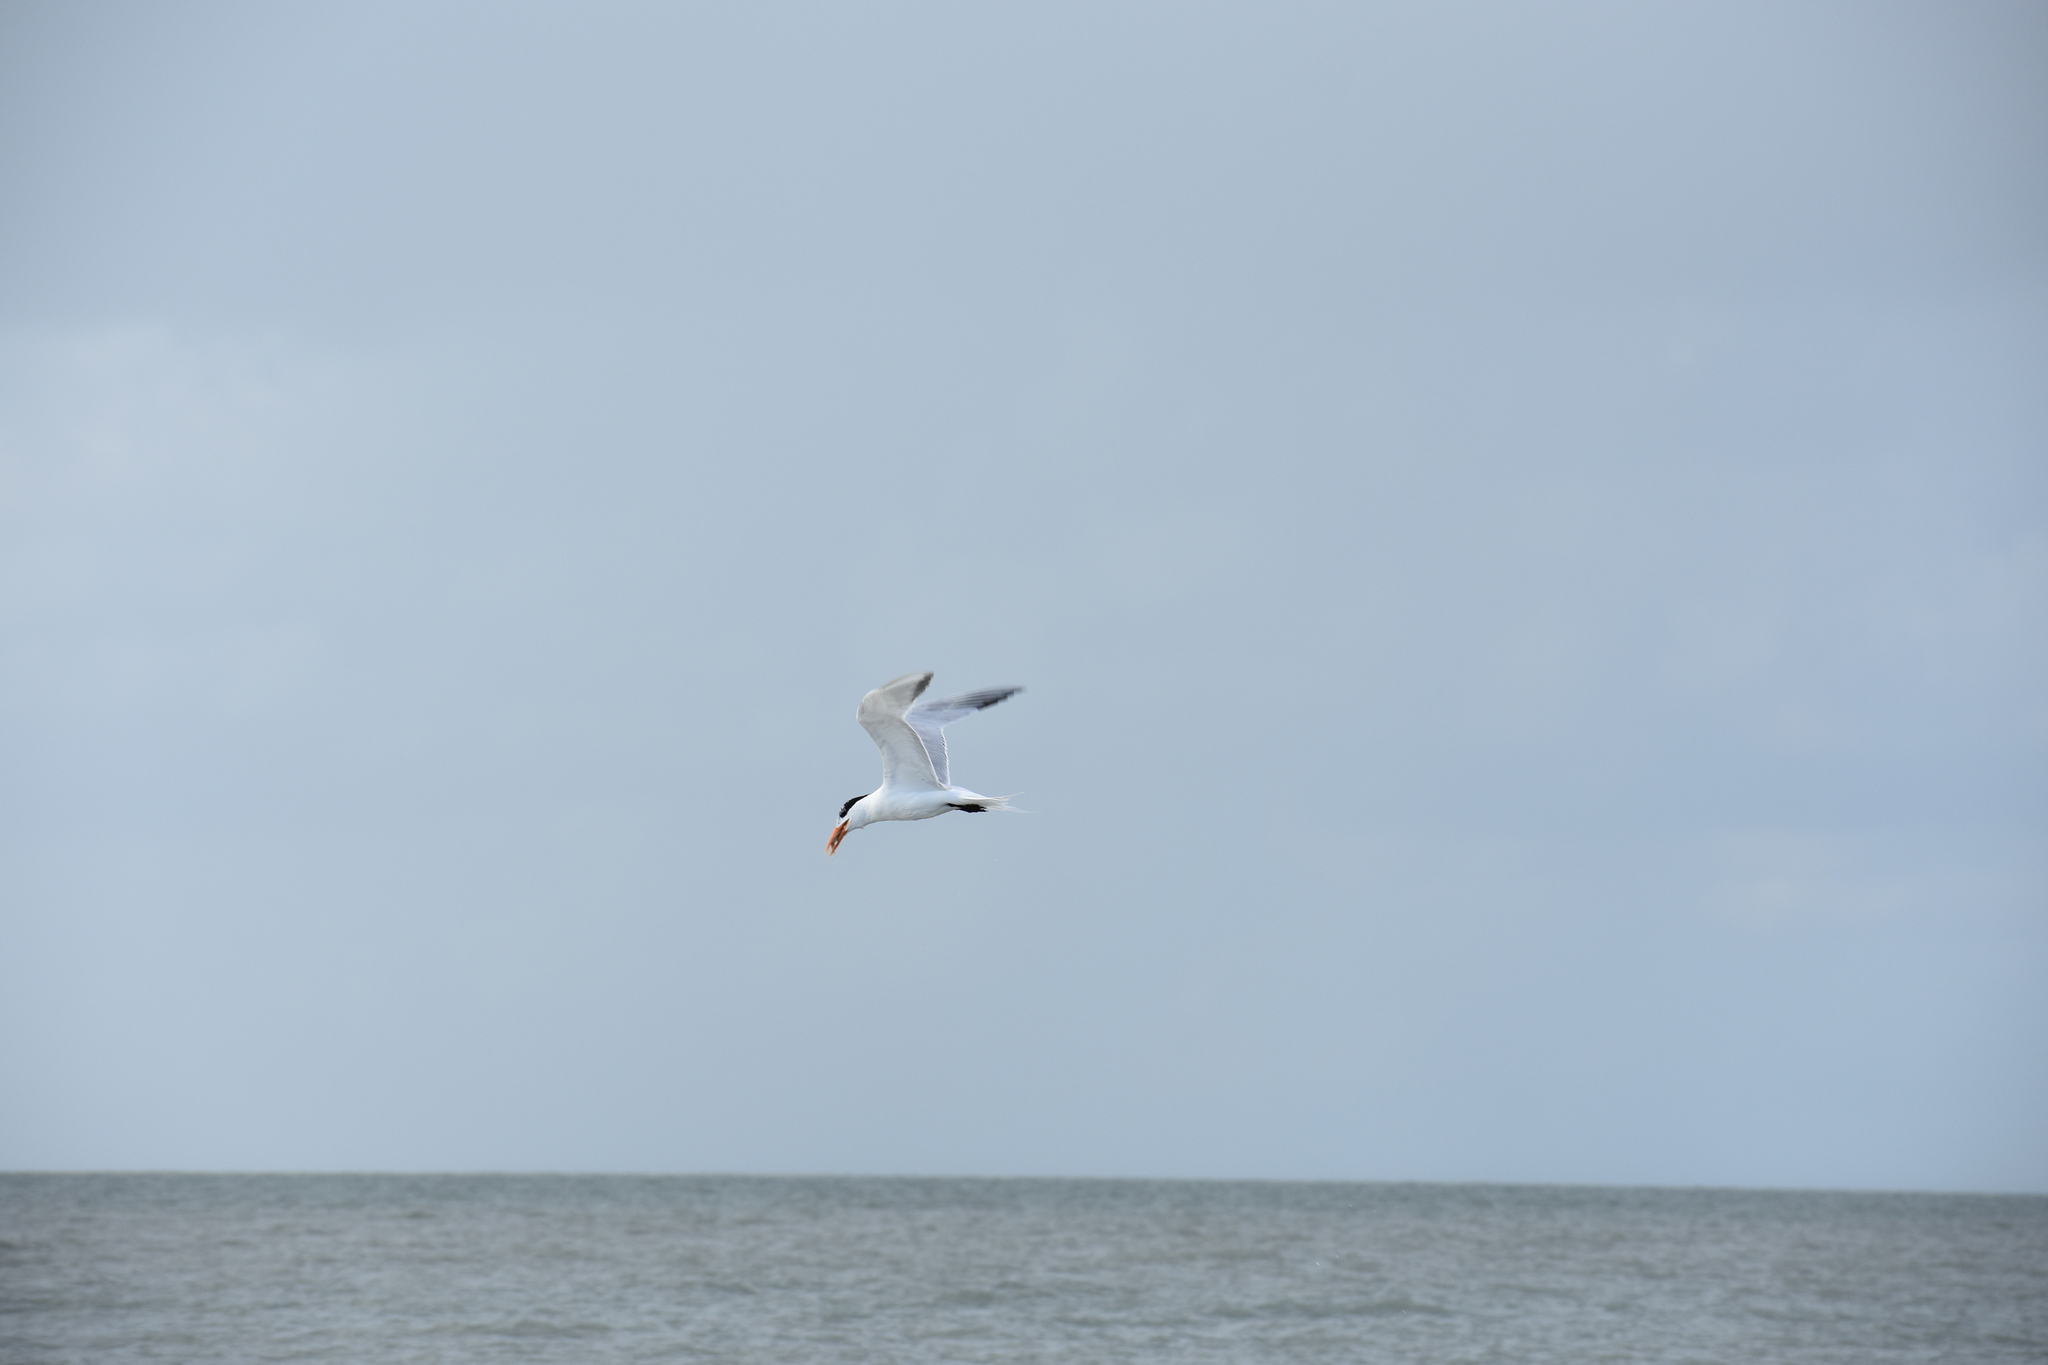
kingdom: Animalia
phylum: Chordata
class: Aves
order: Charadriiformes
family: Laridae
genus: Thalasseus
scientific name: Thalasseus maximus
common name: Royal tern
